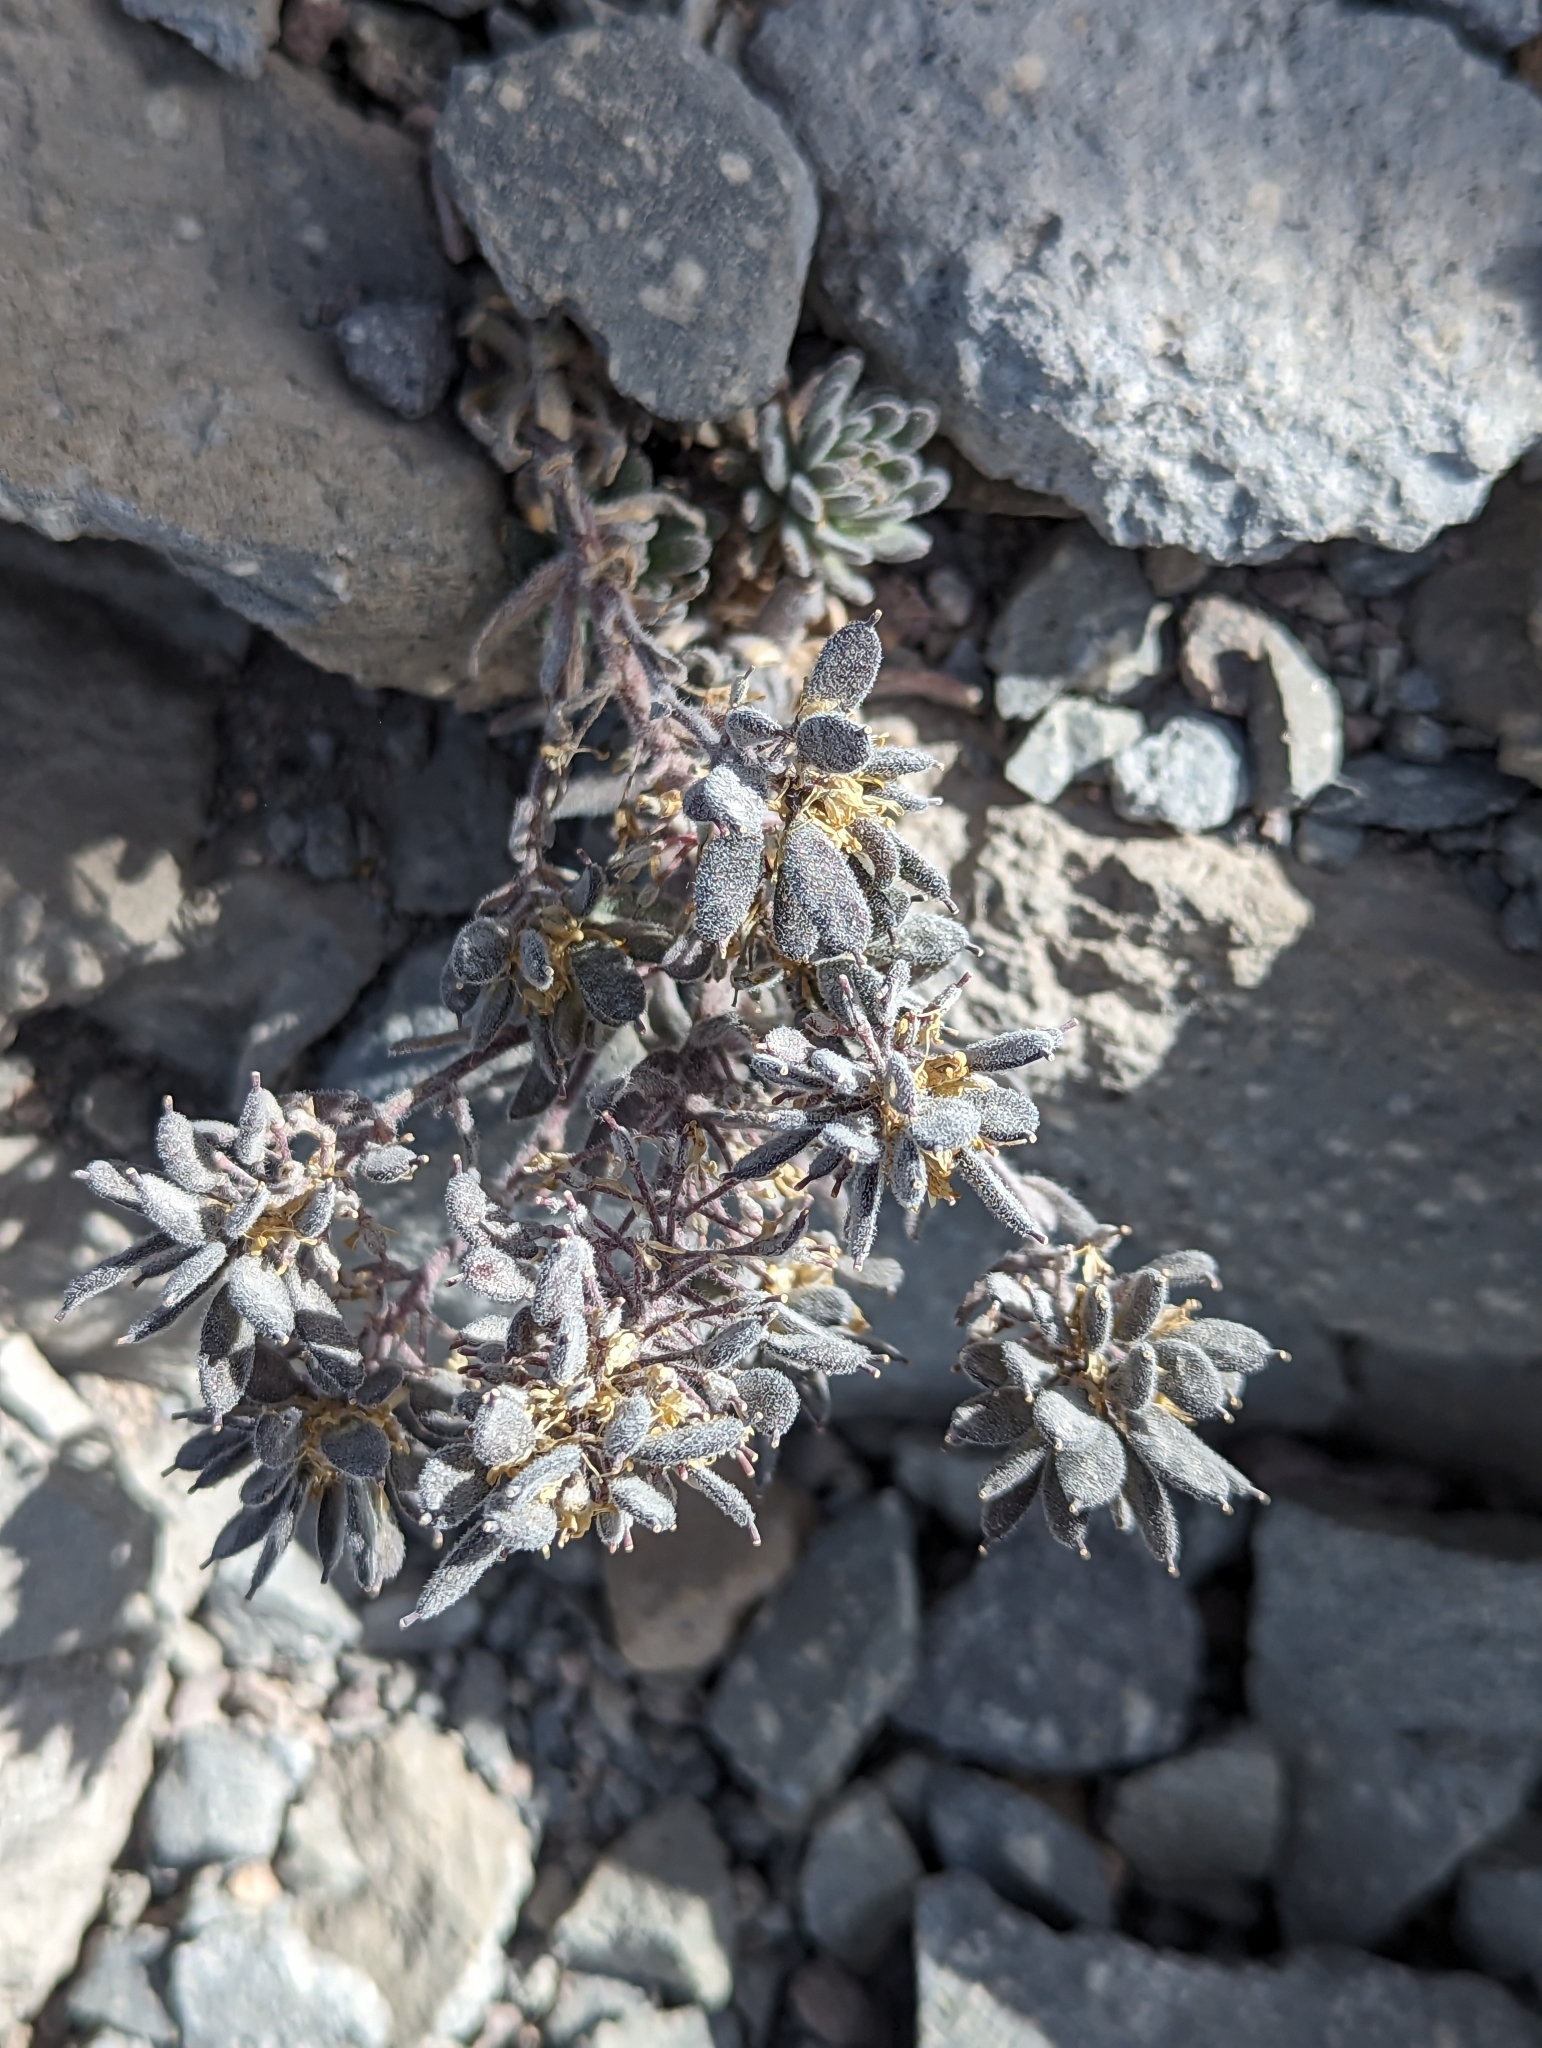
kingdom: Plantae
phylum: Tracheophyta
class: Magnoliopsida
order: Brassicales
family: Brassicaceae
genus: Draba
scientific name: Draba aureola
